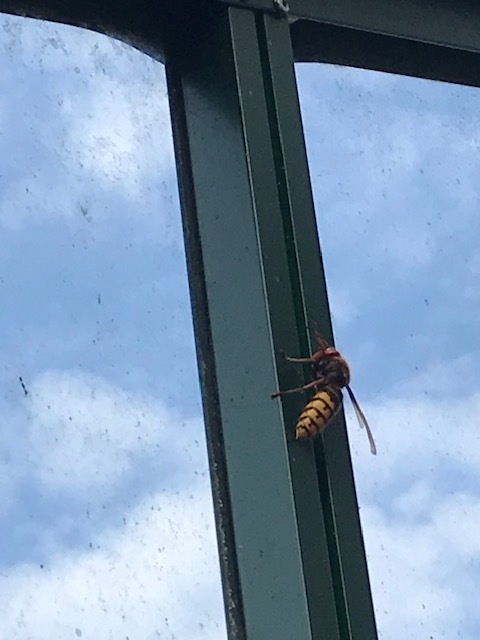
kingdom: Animalia
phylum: Arthropoda
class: Insecta
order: Hymenoptera
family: Vespidae
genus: Vespa
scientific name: Vespa crabro
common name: Hornet
